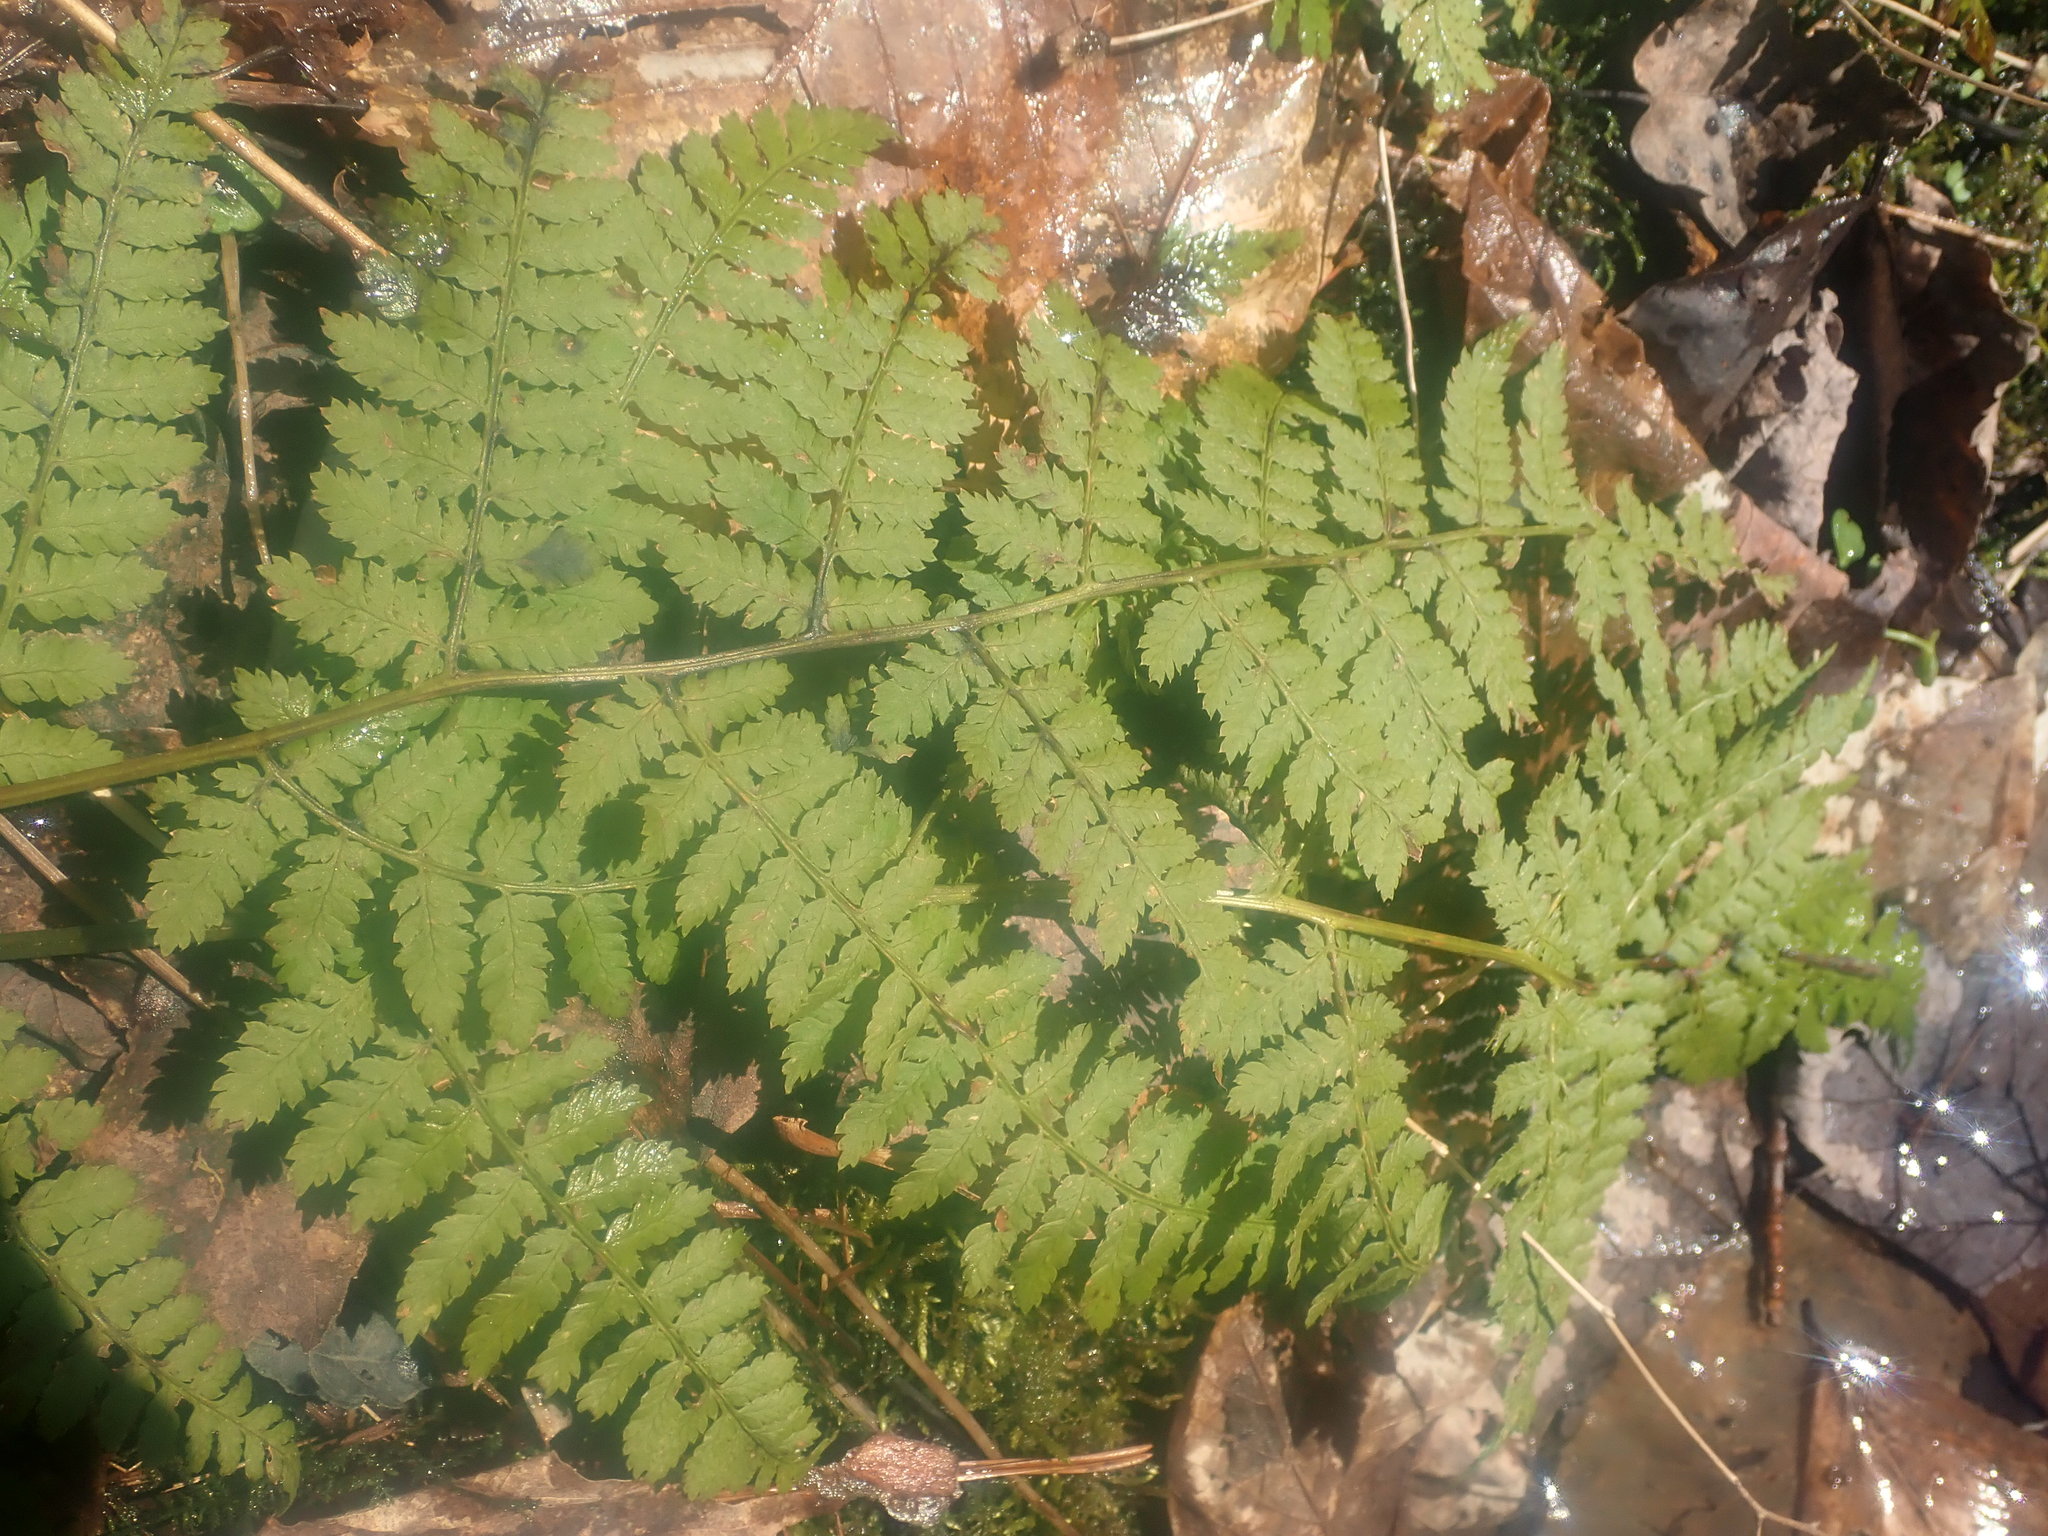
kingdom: Plantae
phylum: Tracheophyta
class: Polypodiopsida
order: Polypodiales
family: Dryopteridaceae
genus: Dryopteris
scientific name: Dryopteris intermedia
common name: Evergreen wood fern
